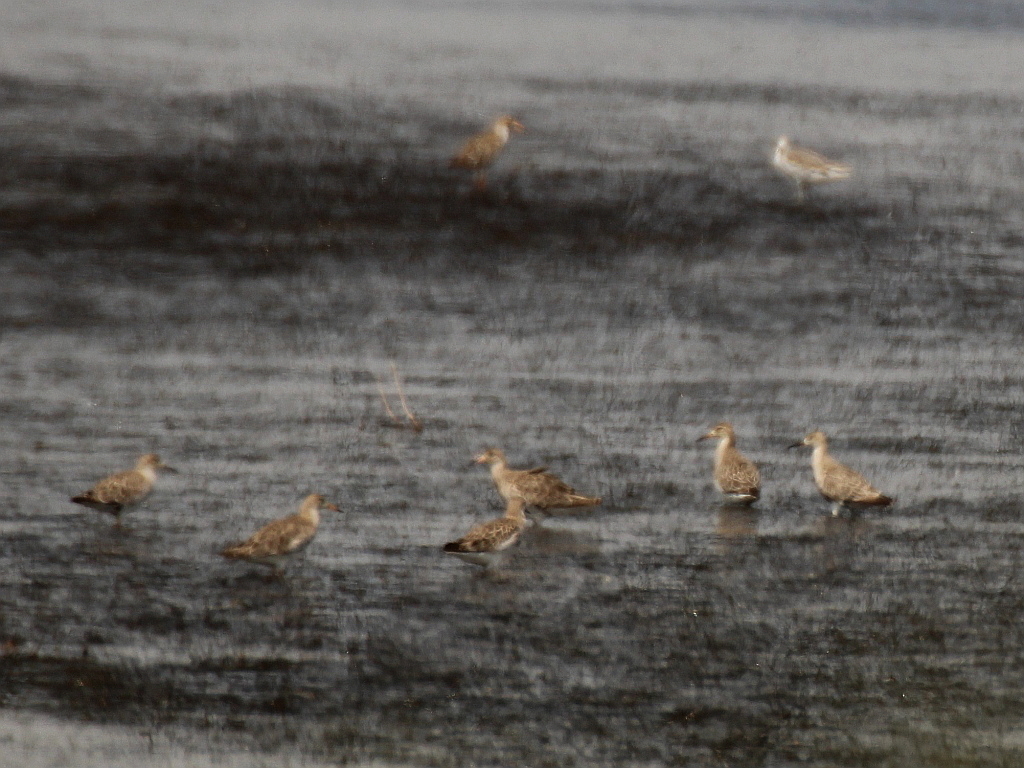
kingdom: Animalia
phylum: Chordata
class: Aves
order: Charadriiformes
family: Scolopacidae
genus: Calidris
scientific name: Calidris pugnax
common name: Ruff
